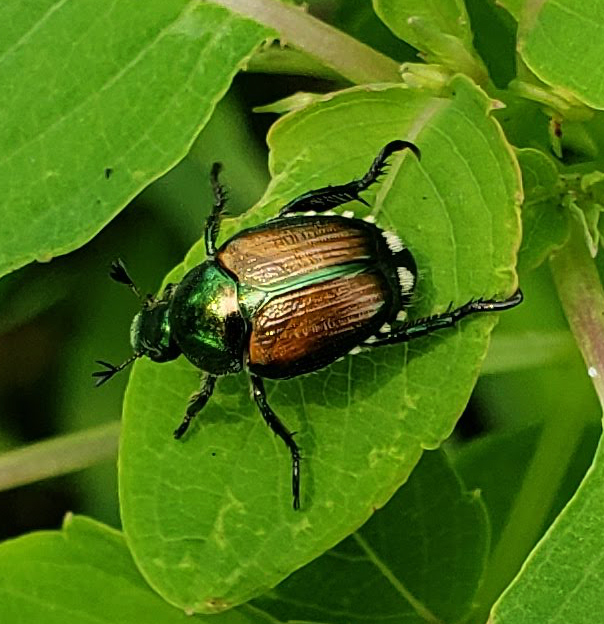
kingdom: Animalia
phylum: Arthropoda
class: Insecta
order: Coleoptera
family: Scarabaeidae
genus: Popillia
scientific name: Popillia japonica
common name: Japanese beetle
